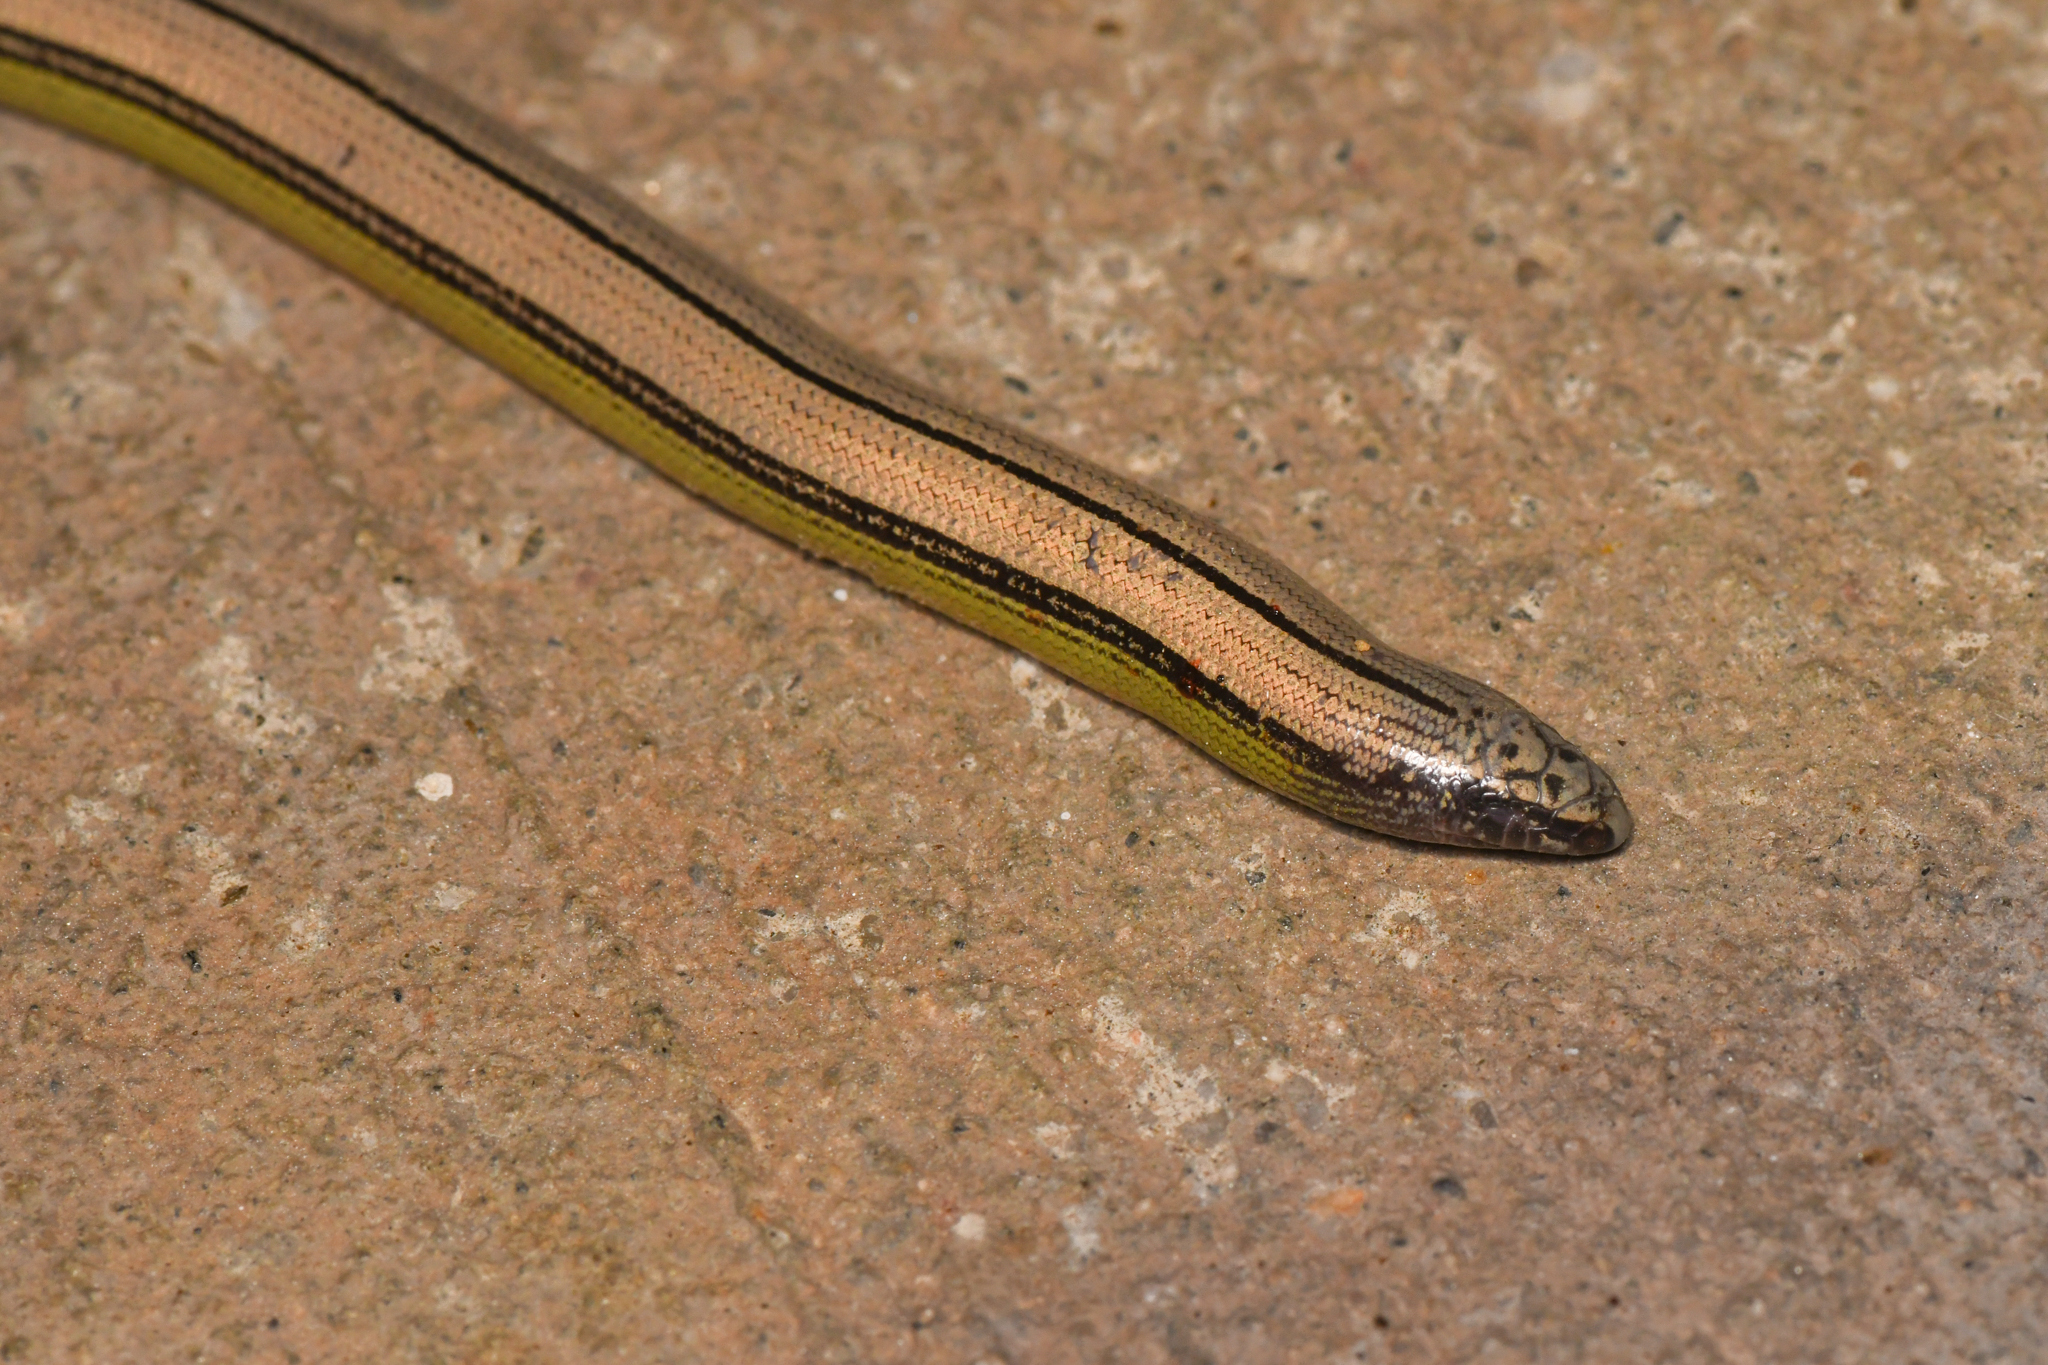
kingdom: Animalia
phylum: Chordata
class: Squamata
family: Anguidae
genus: Anniella
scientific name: Anniella campi
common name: Southern sierra legless lizard
